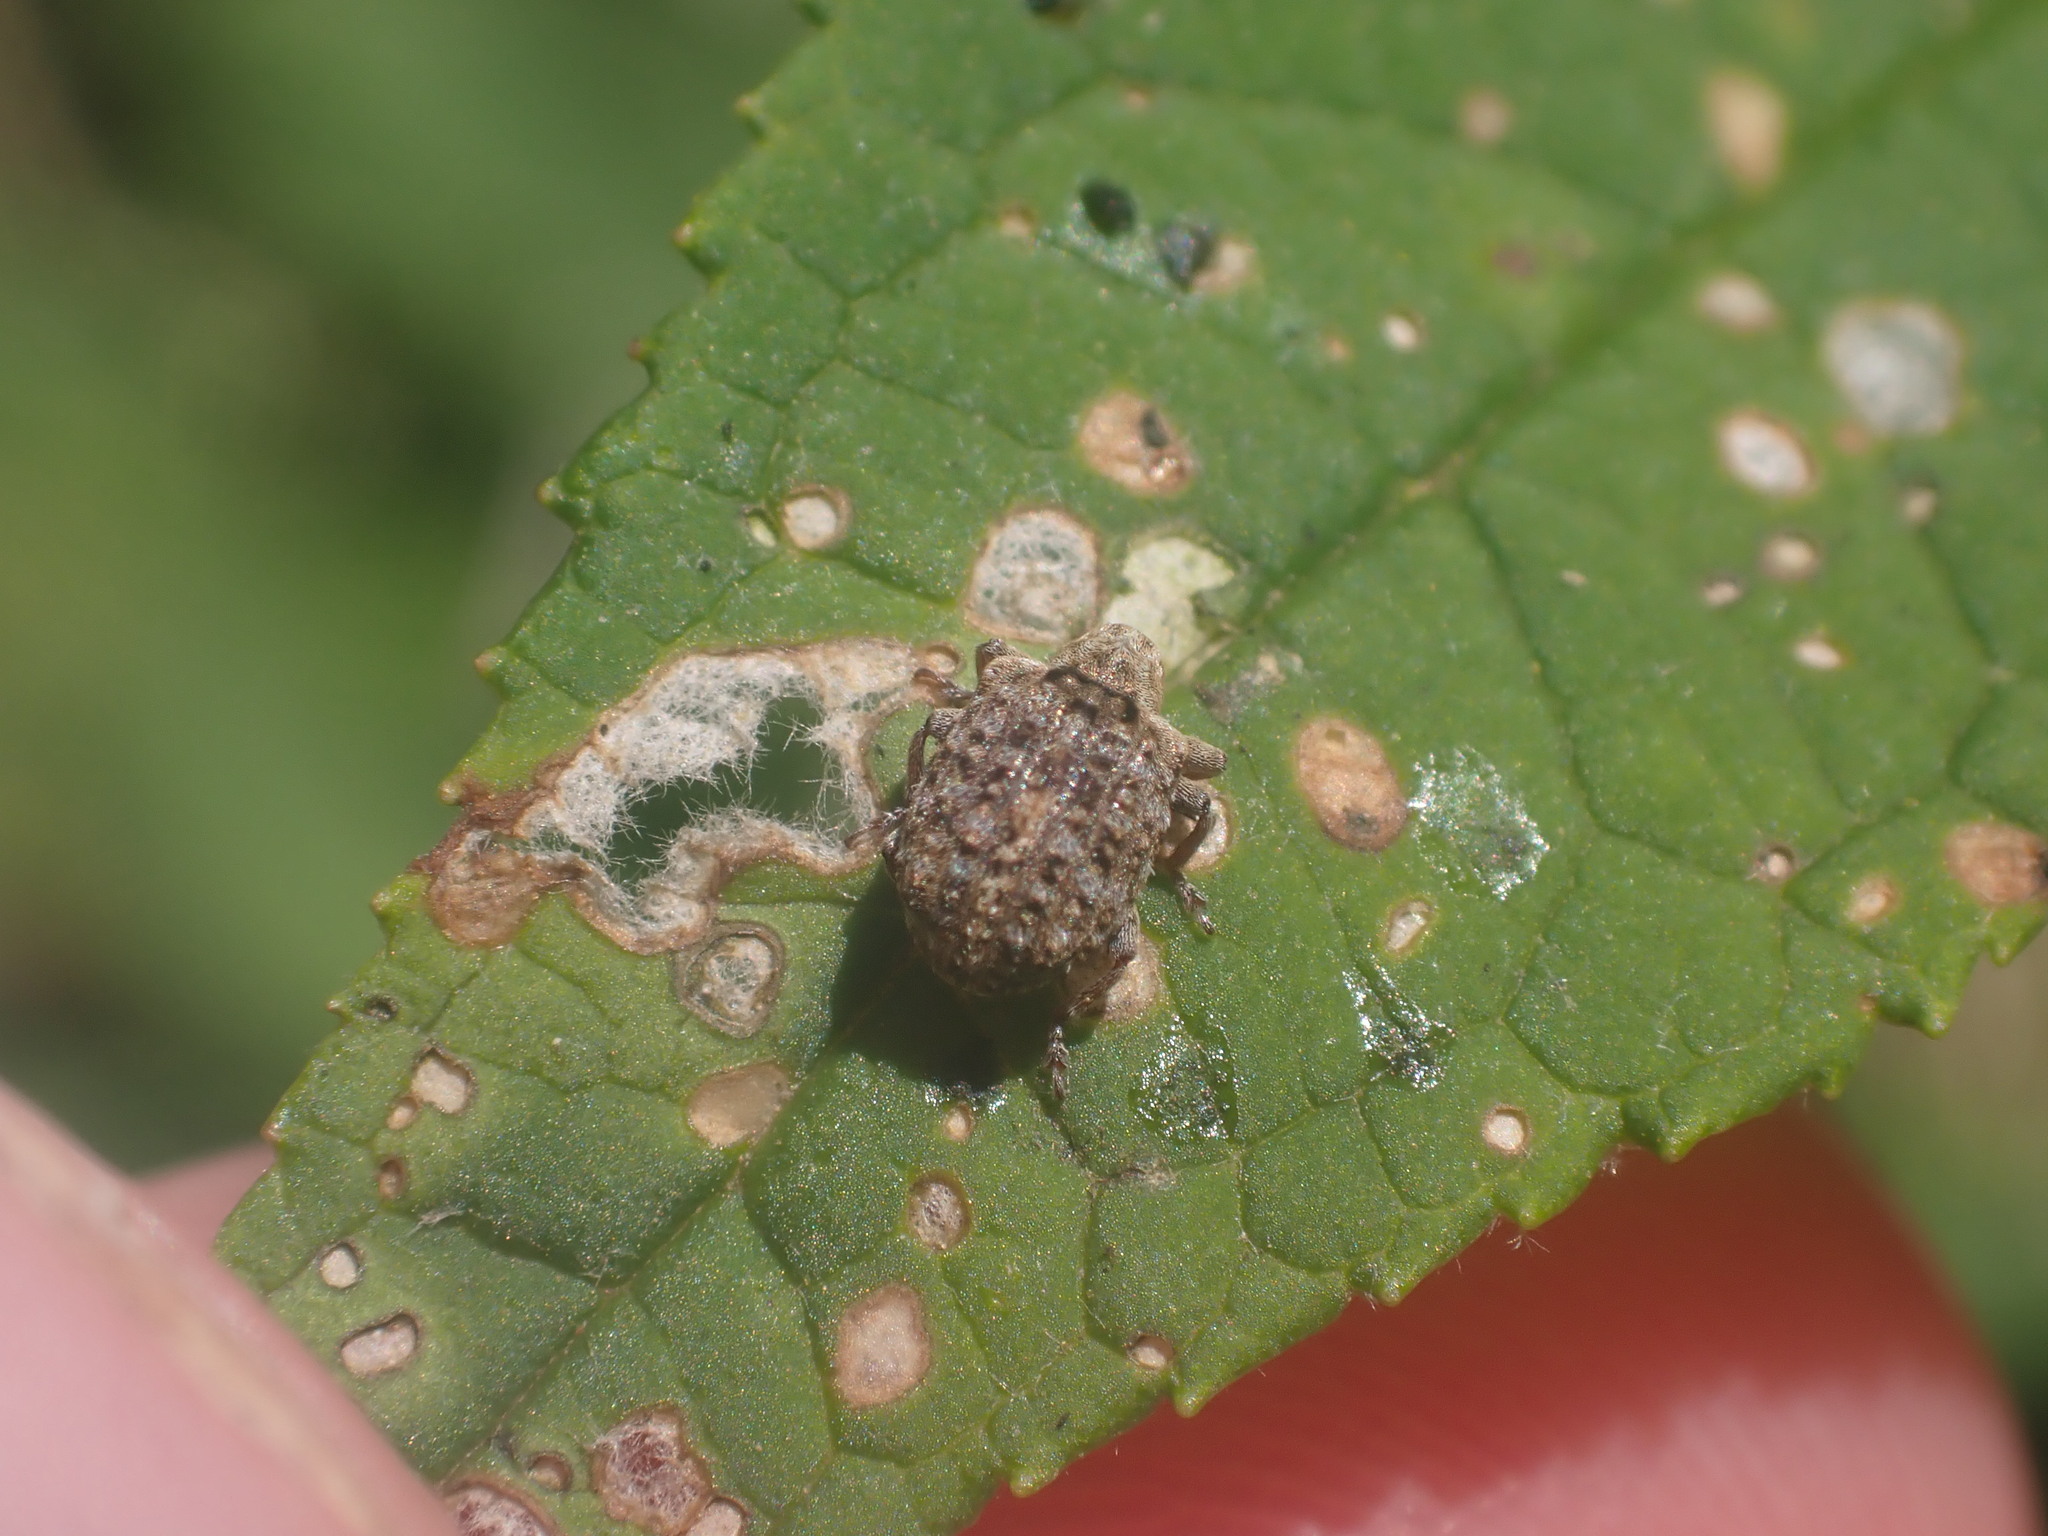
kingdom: Animalia
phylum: Arthropoda
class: Insecta
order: Coleoptera
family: Curculionidae
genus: Cleopus
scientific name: Cleopus japonicus
